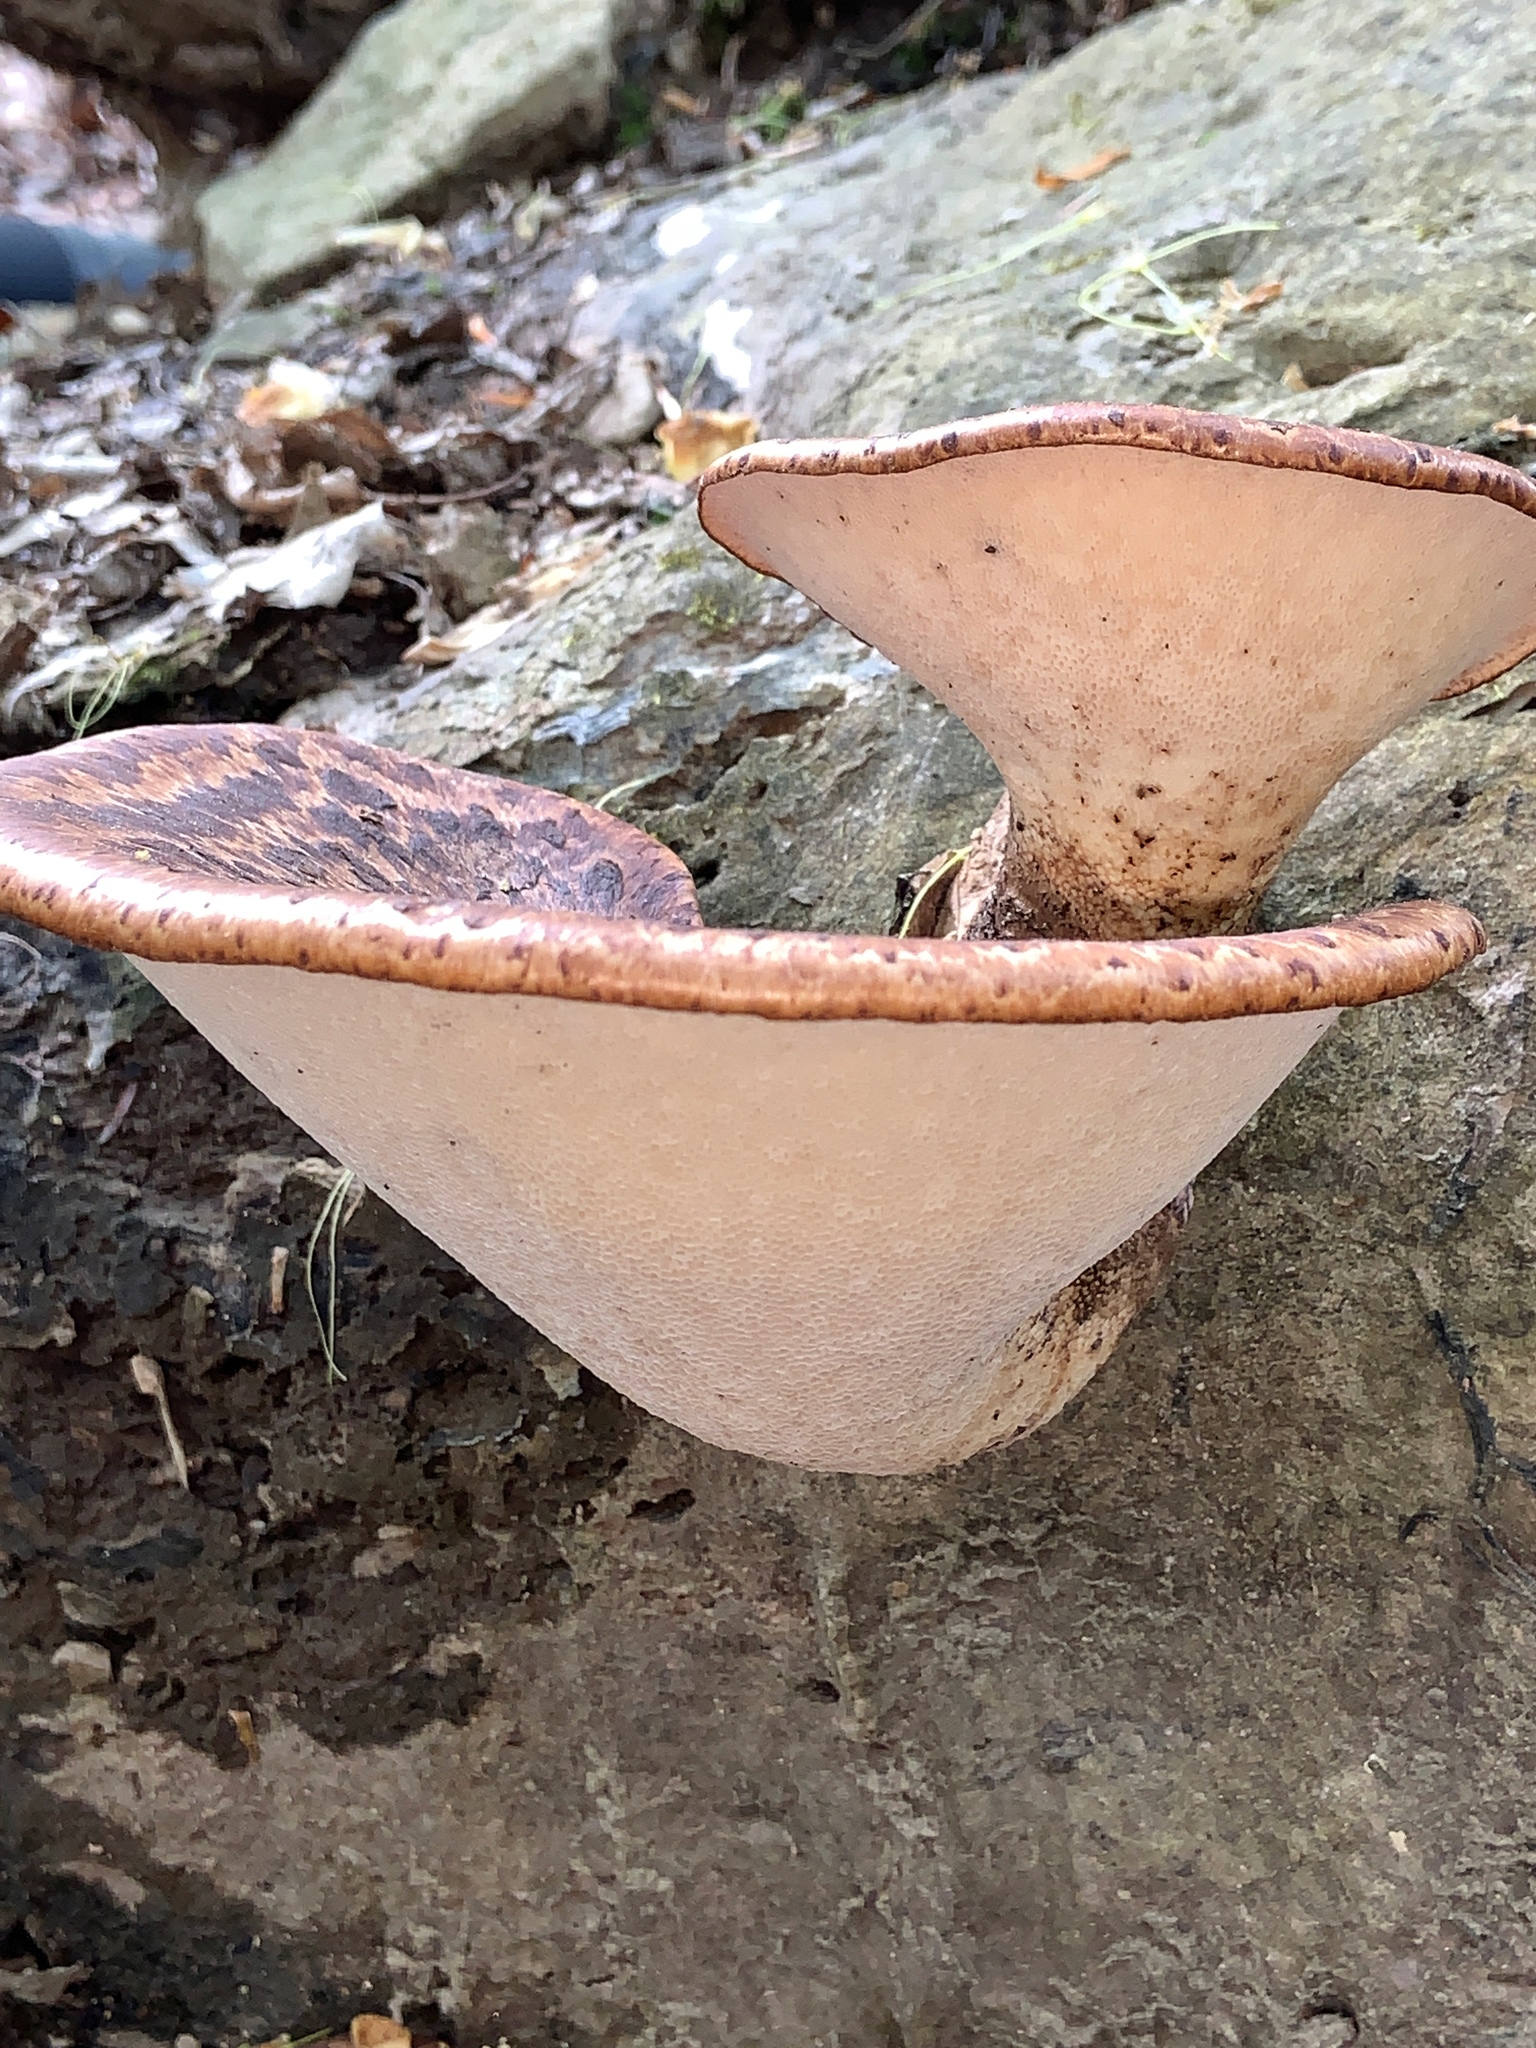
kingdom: Fungi
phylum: Basidiomycota
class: Agaricomycetes
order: Polyporales
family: Polyporaceae
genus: Cerioporus
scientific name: Cerioporus squamosus
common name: Dryad's saddle
